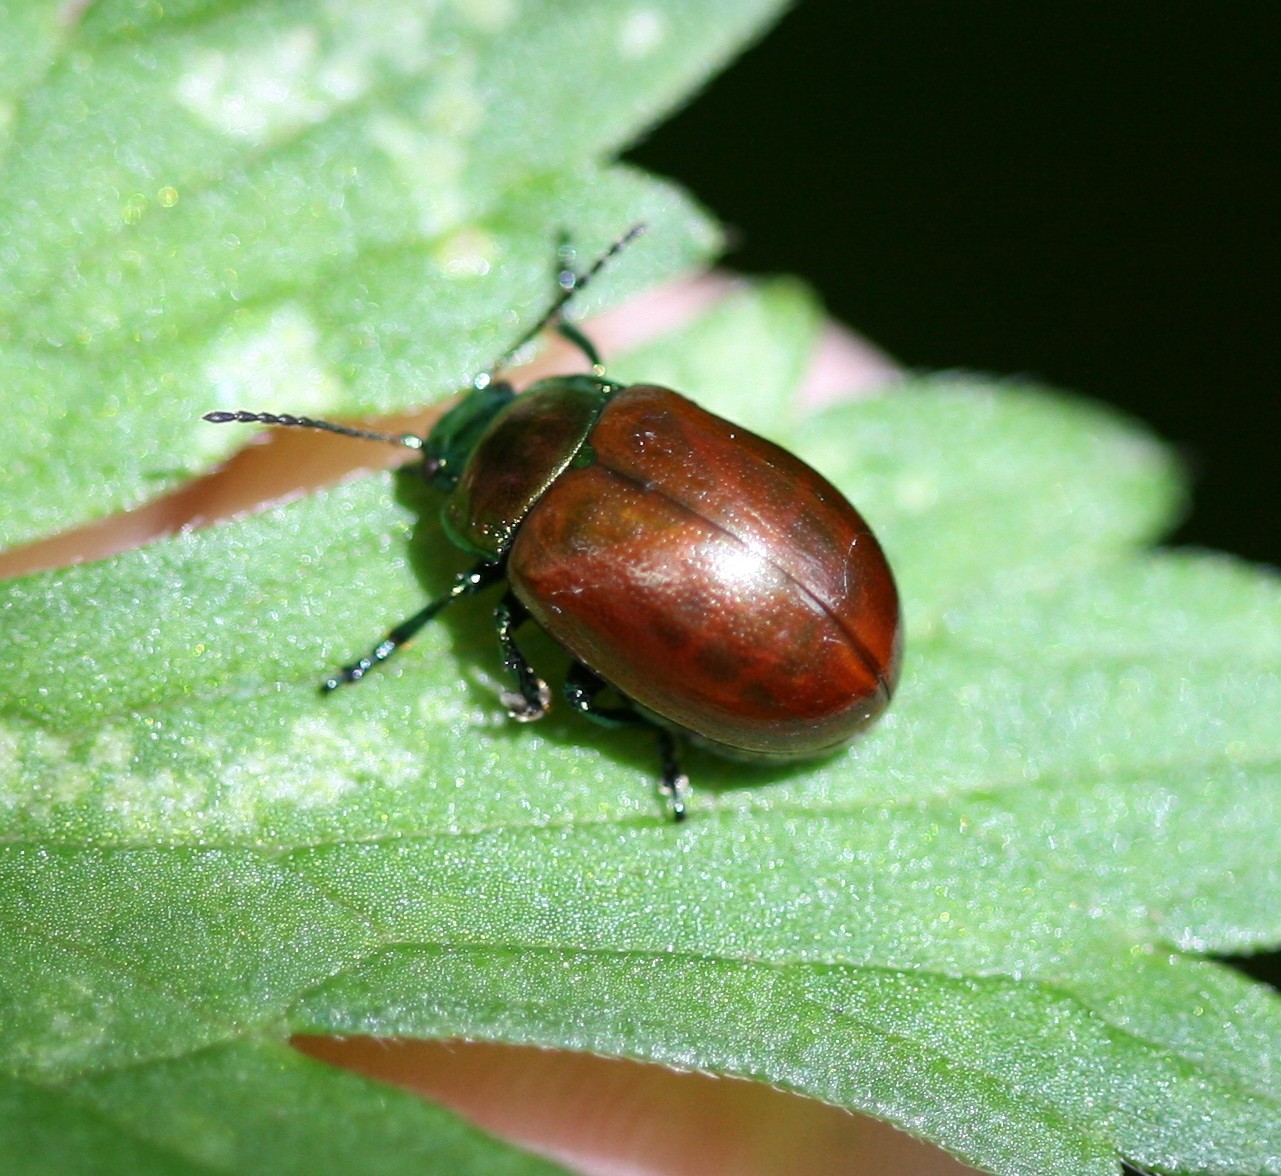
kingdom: Animalia
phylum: Arthropoda
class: Insecta
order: Coleoptera
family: Chrysomelidae
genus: Chrysomela
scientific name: Chrysomela polita
